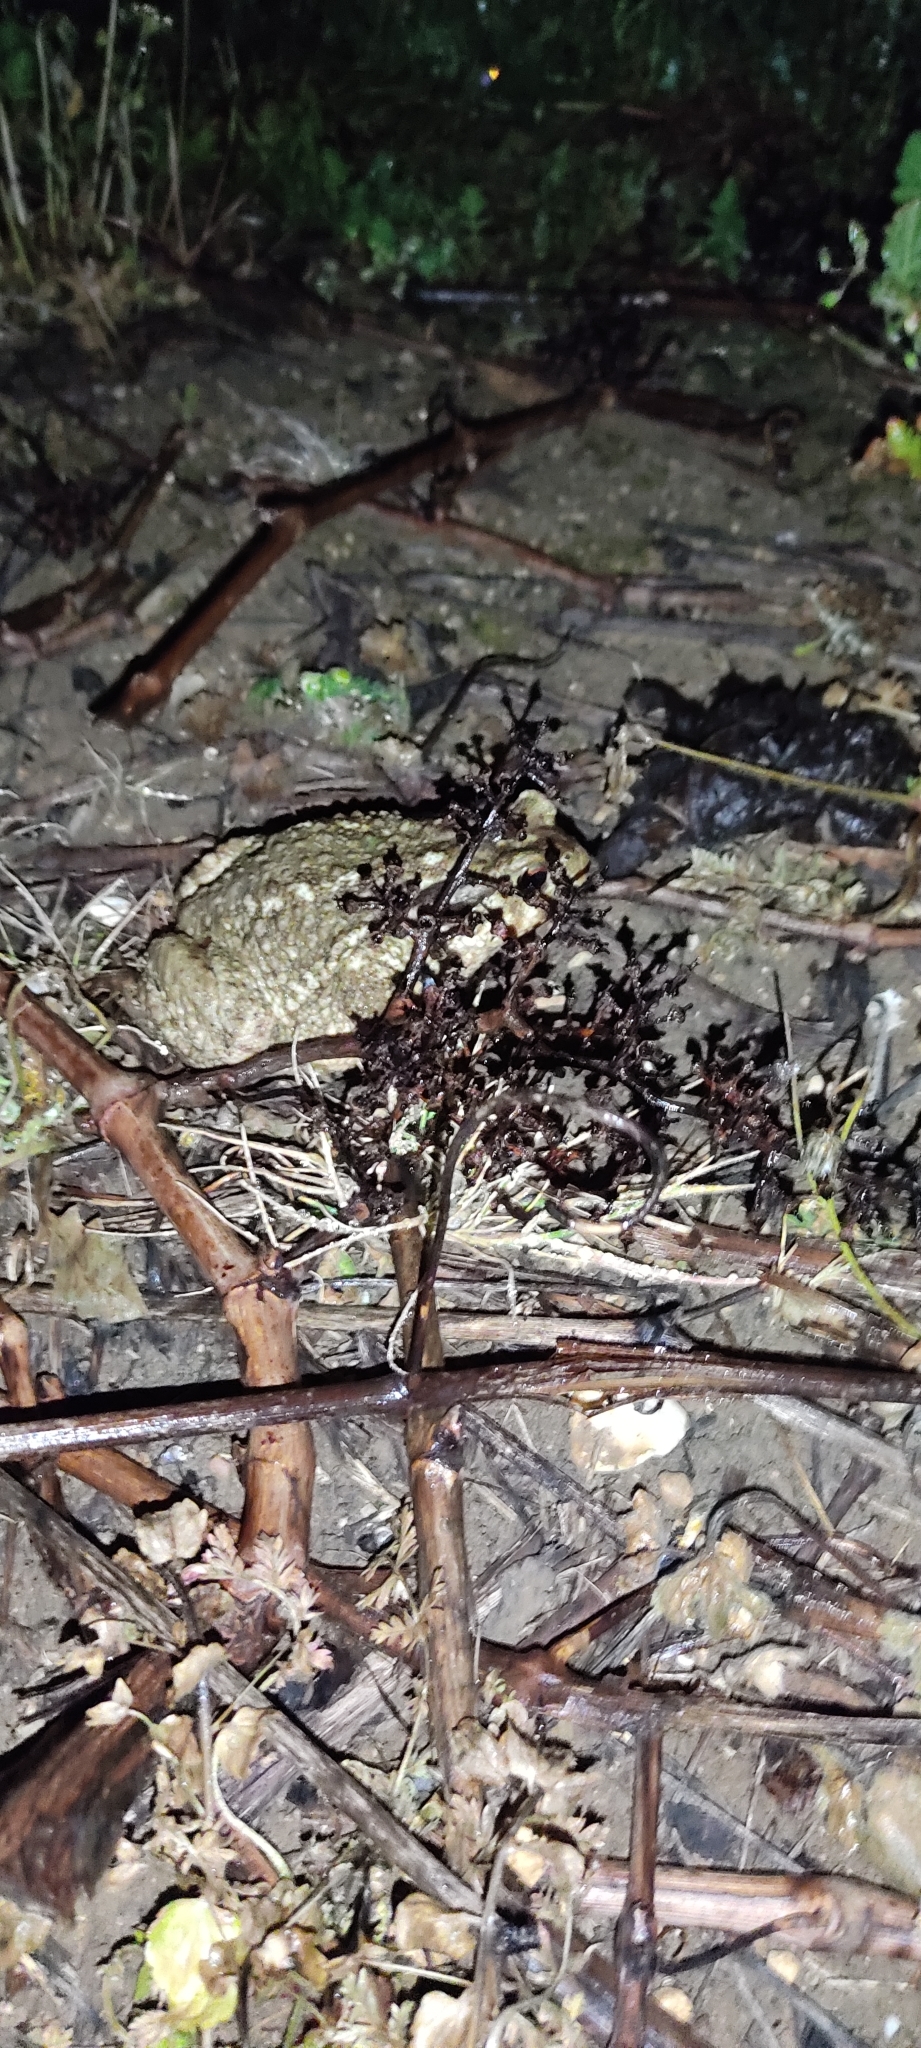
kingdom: Animalia
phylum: Chordata
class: Amphibia
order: Anura
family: Bufonidae
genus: Bufo
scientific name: Bufo spinosus
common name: Western common toad
